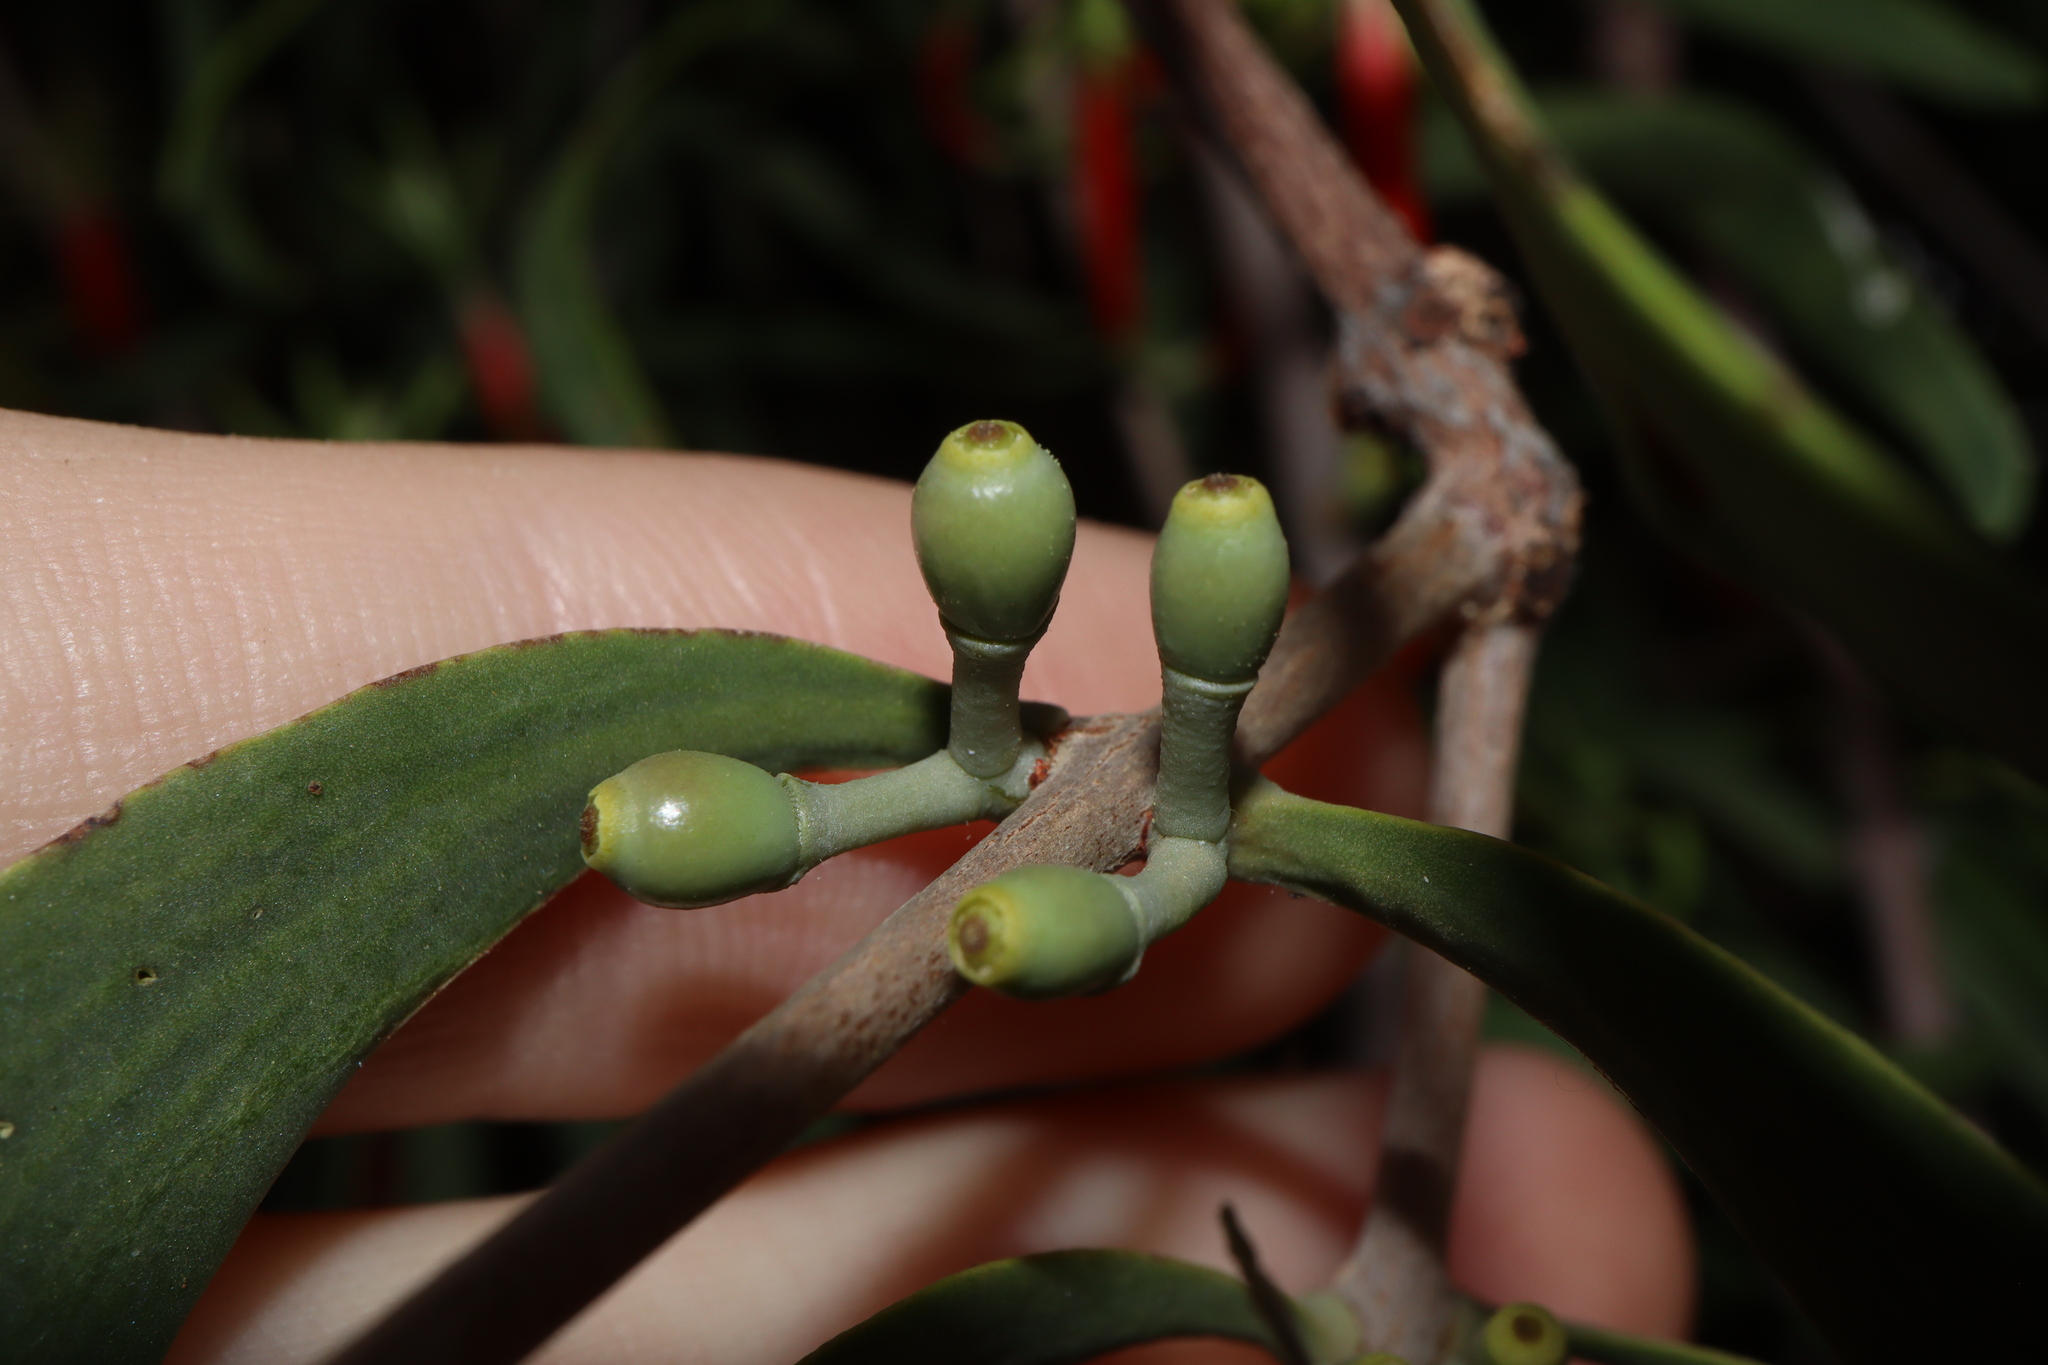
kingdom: Plantae
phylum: Tracheophyta
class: Magnoliopsida
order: Santalales
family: Loranthaceae
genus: Lysiana
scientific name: Lysiana exocarpi
